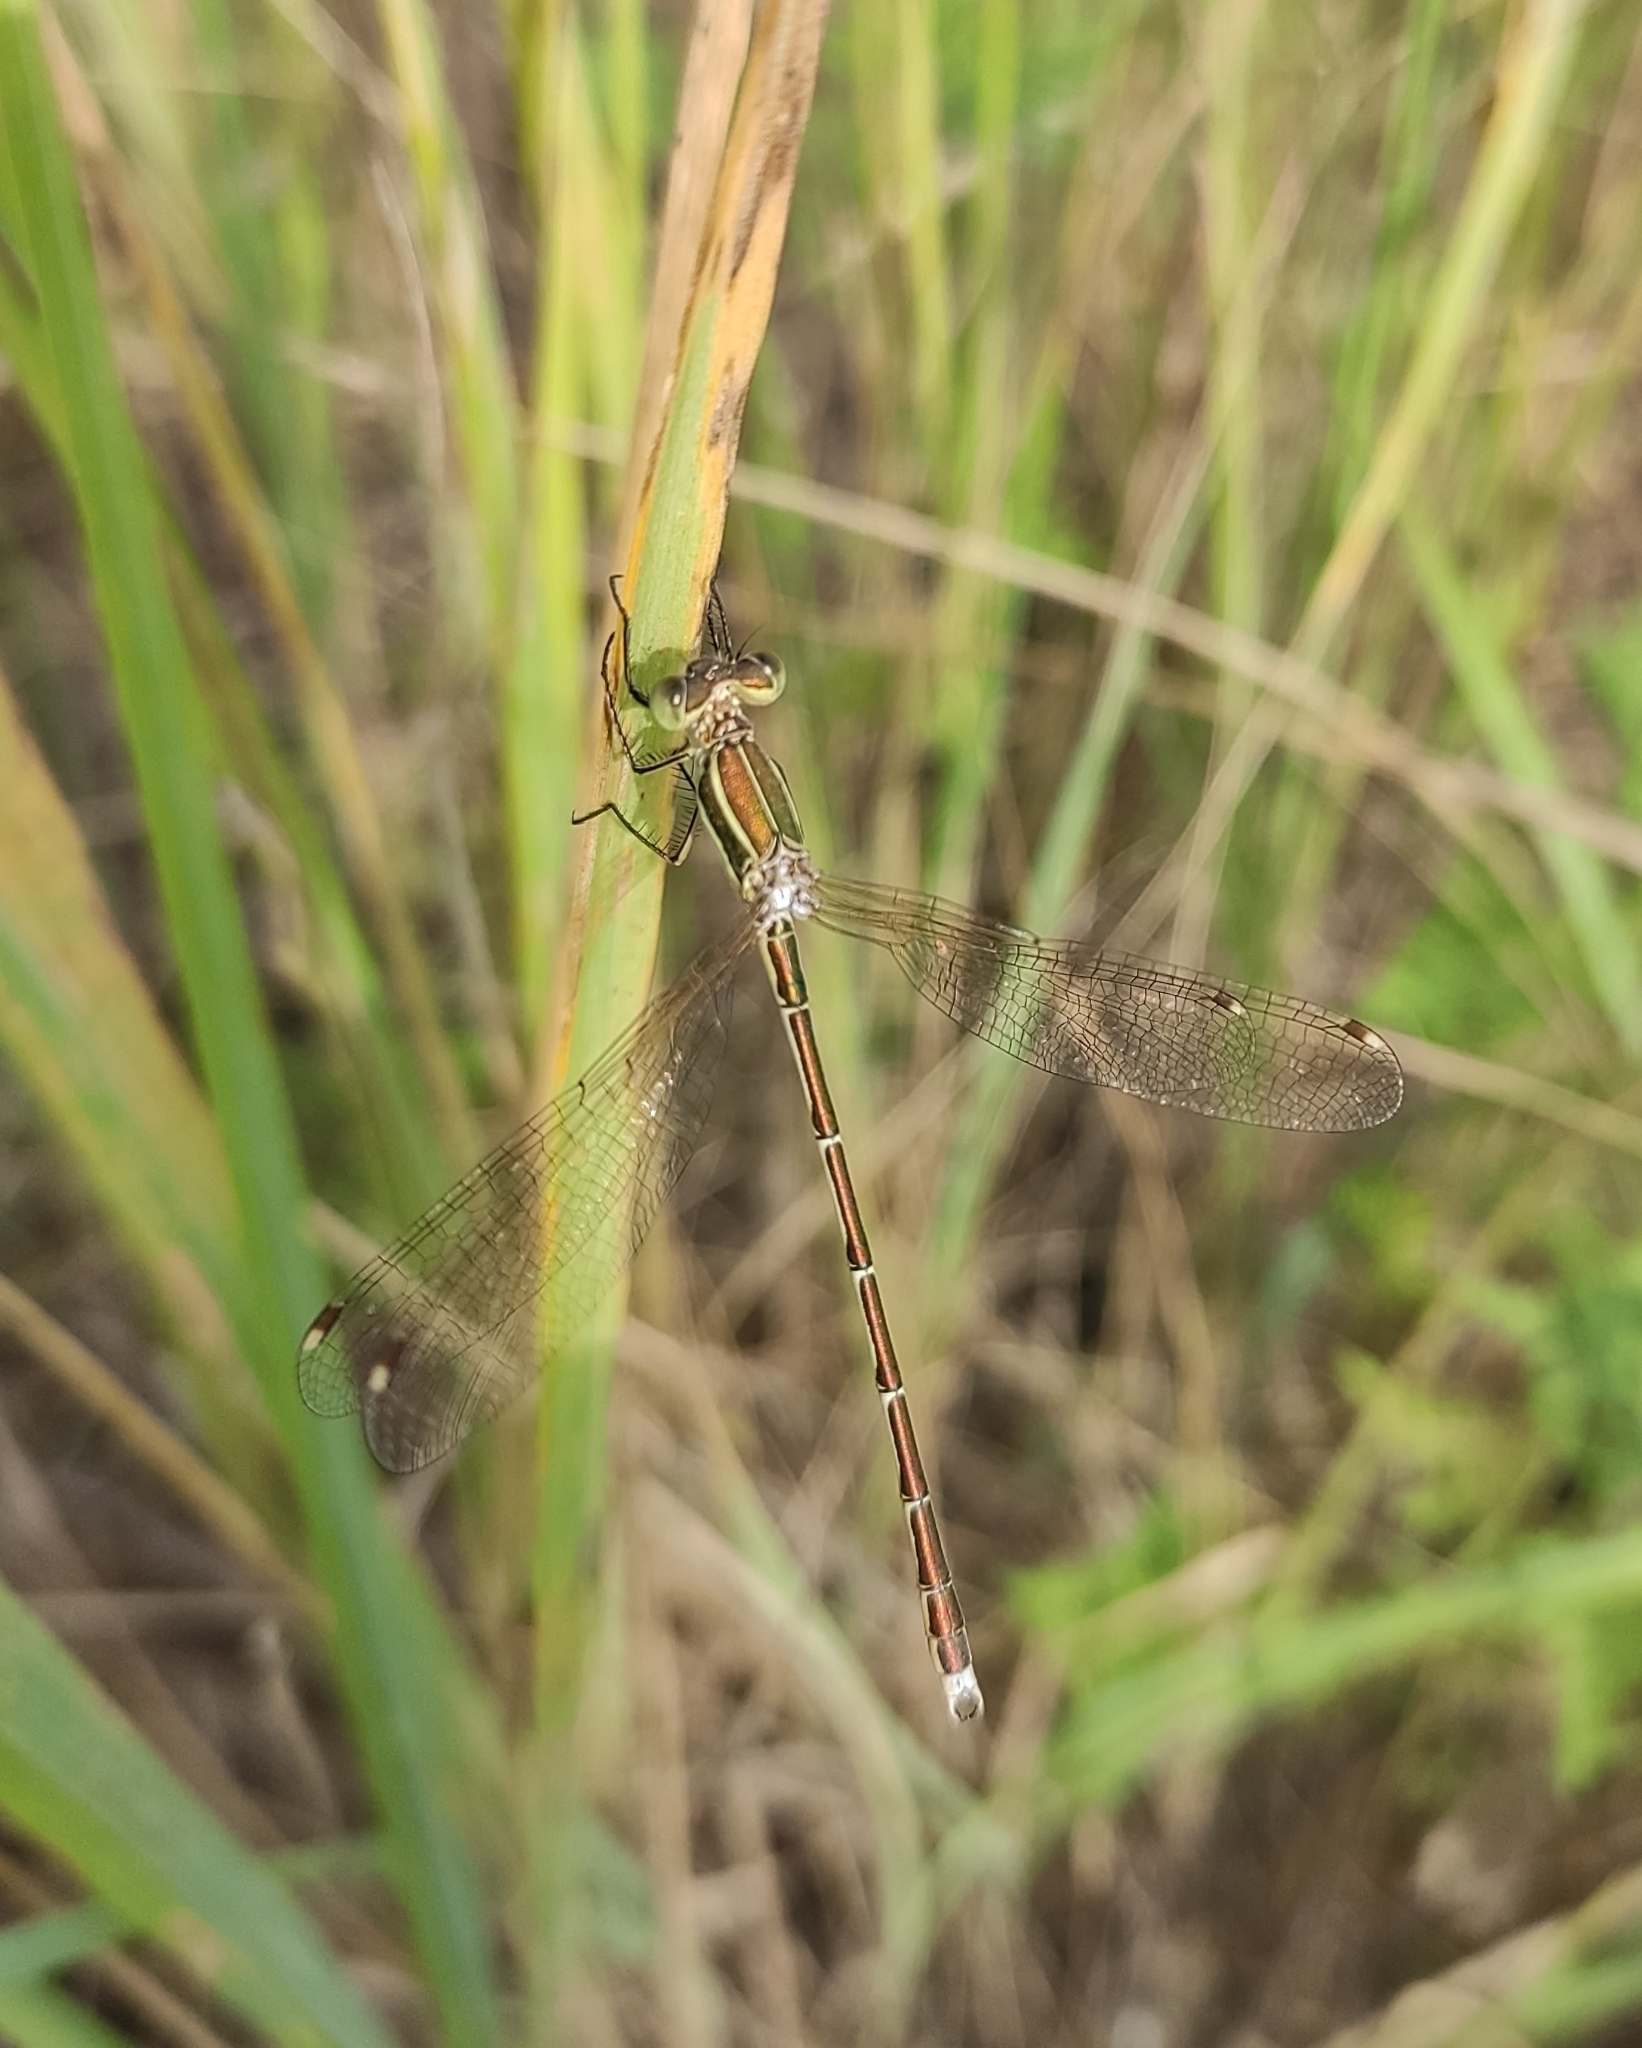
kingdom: Animalia
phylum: Arthropoda
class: Insecta
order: Odonata
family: Lestidae
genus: Lestes
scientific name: Lestes barbarus
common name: Migrant spreadwing
